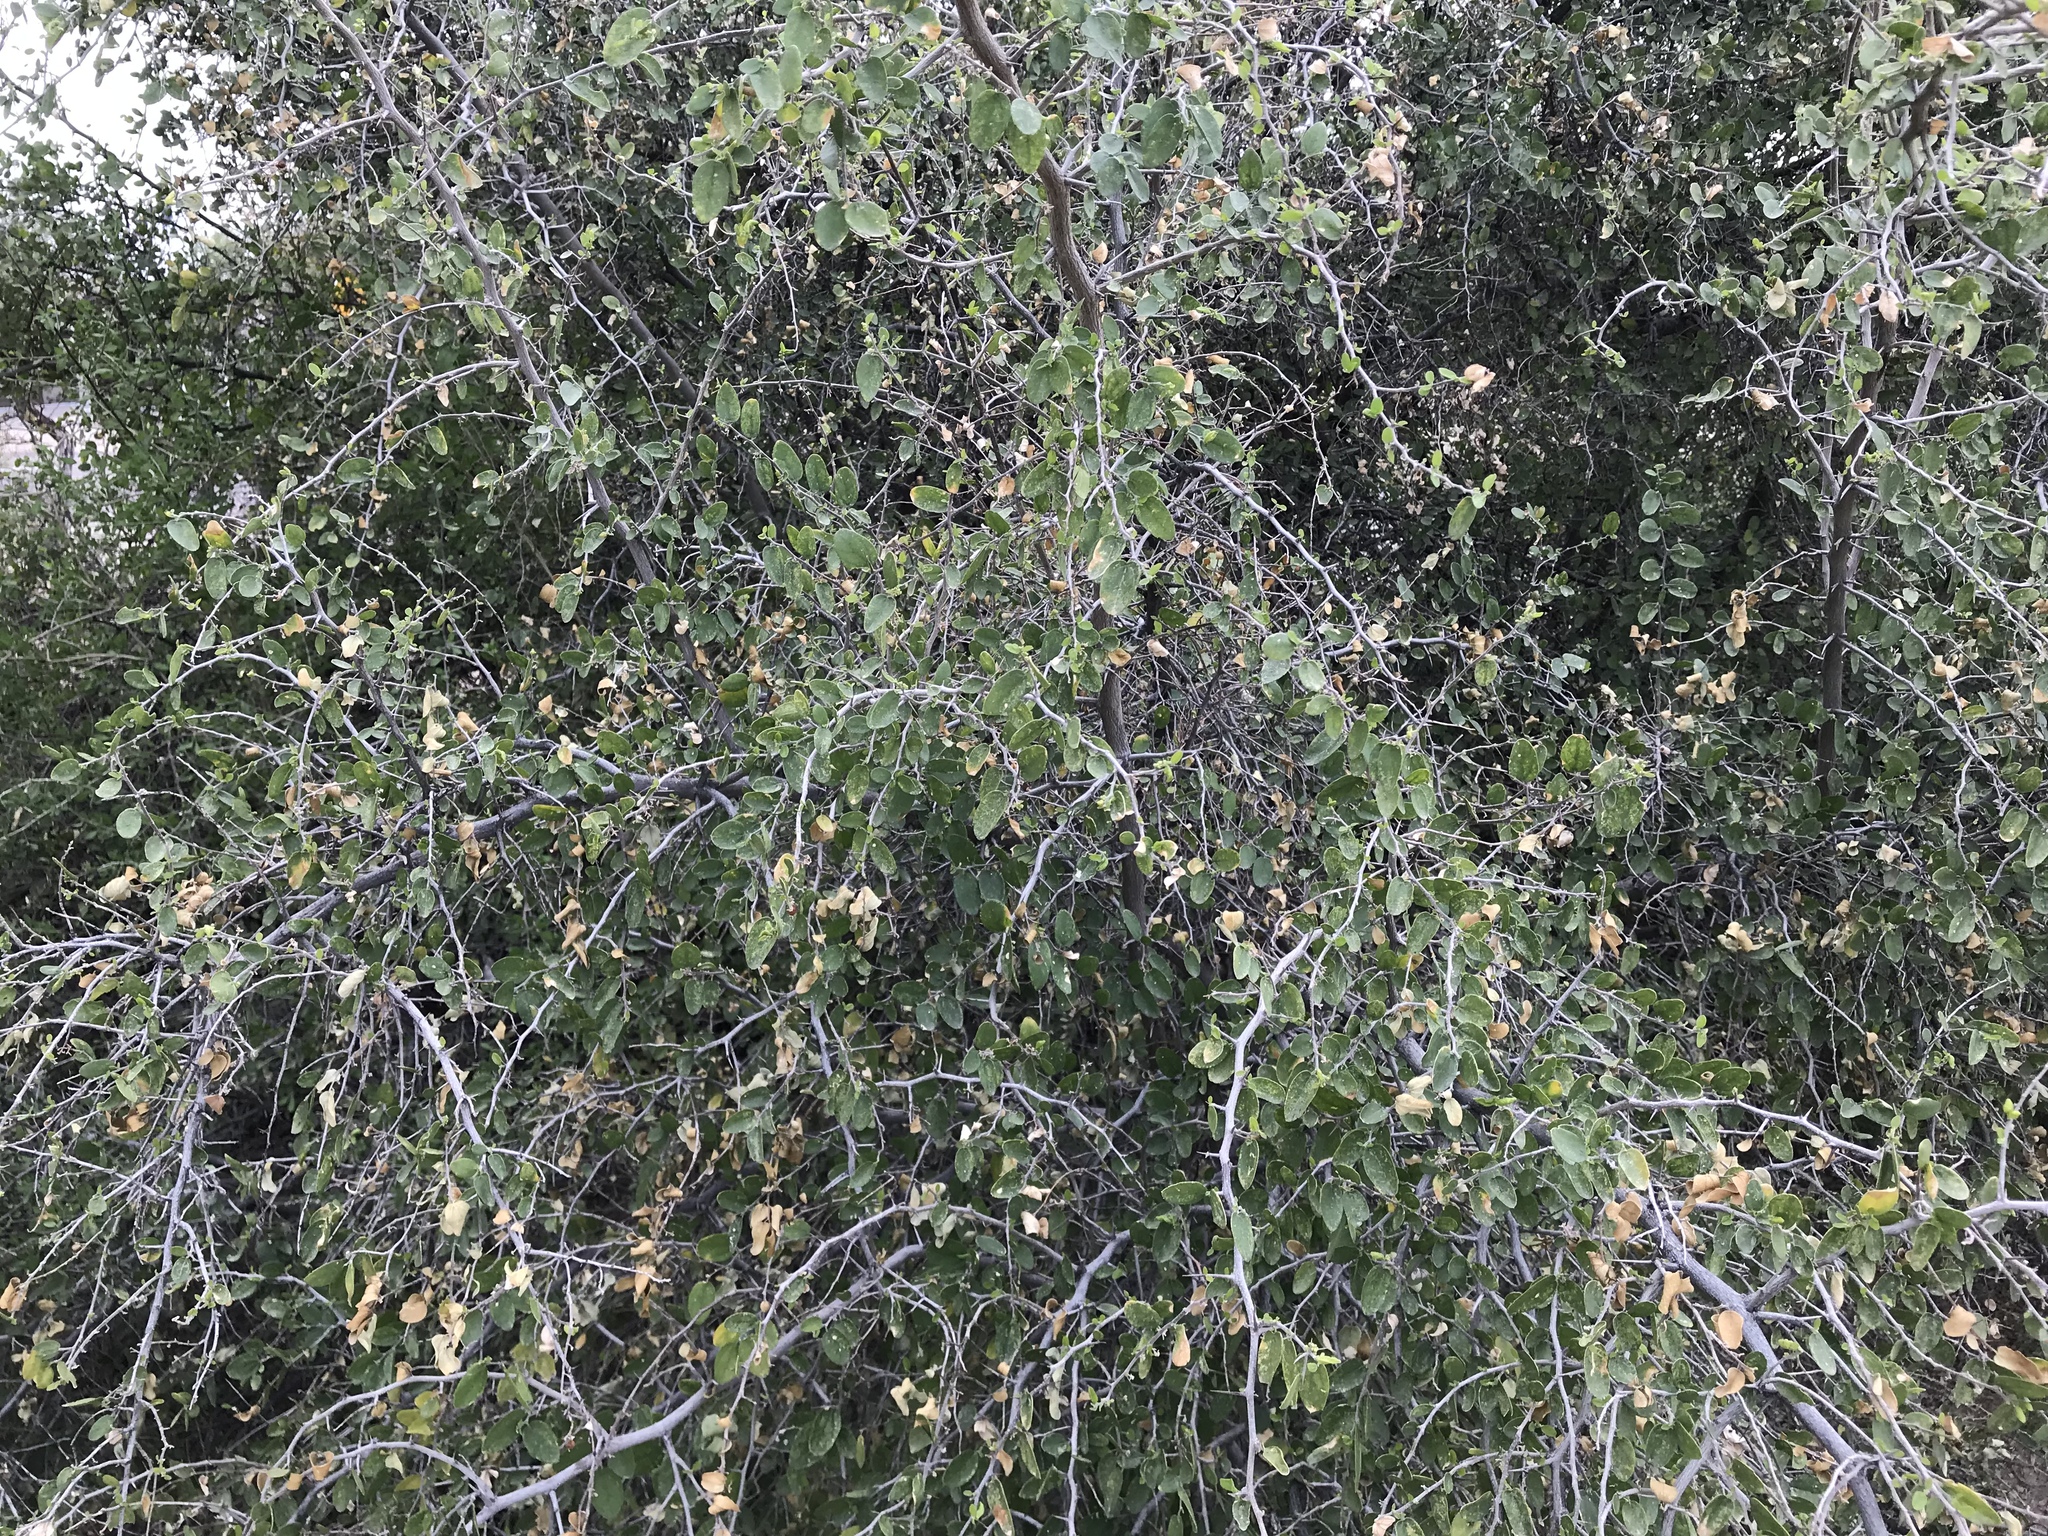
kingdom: Plantae
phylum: Tracheophyta
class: Magnoliopsida
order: Rosales
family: Cannabaceae
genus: Celtis
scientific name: Celtis pallida
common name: Desert hackberry
